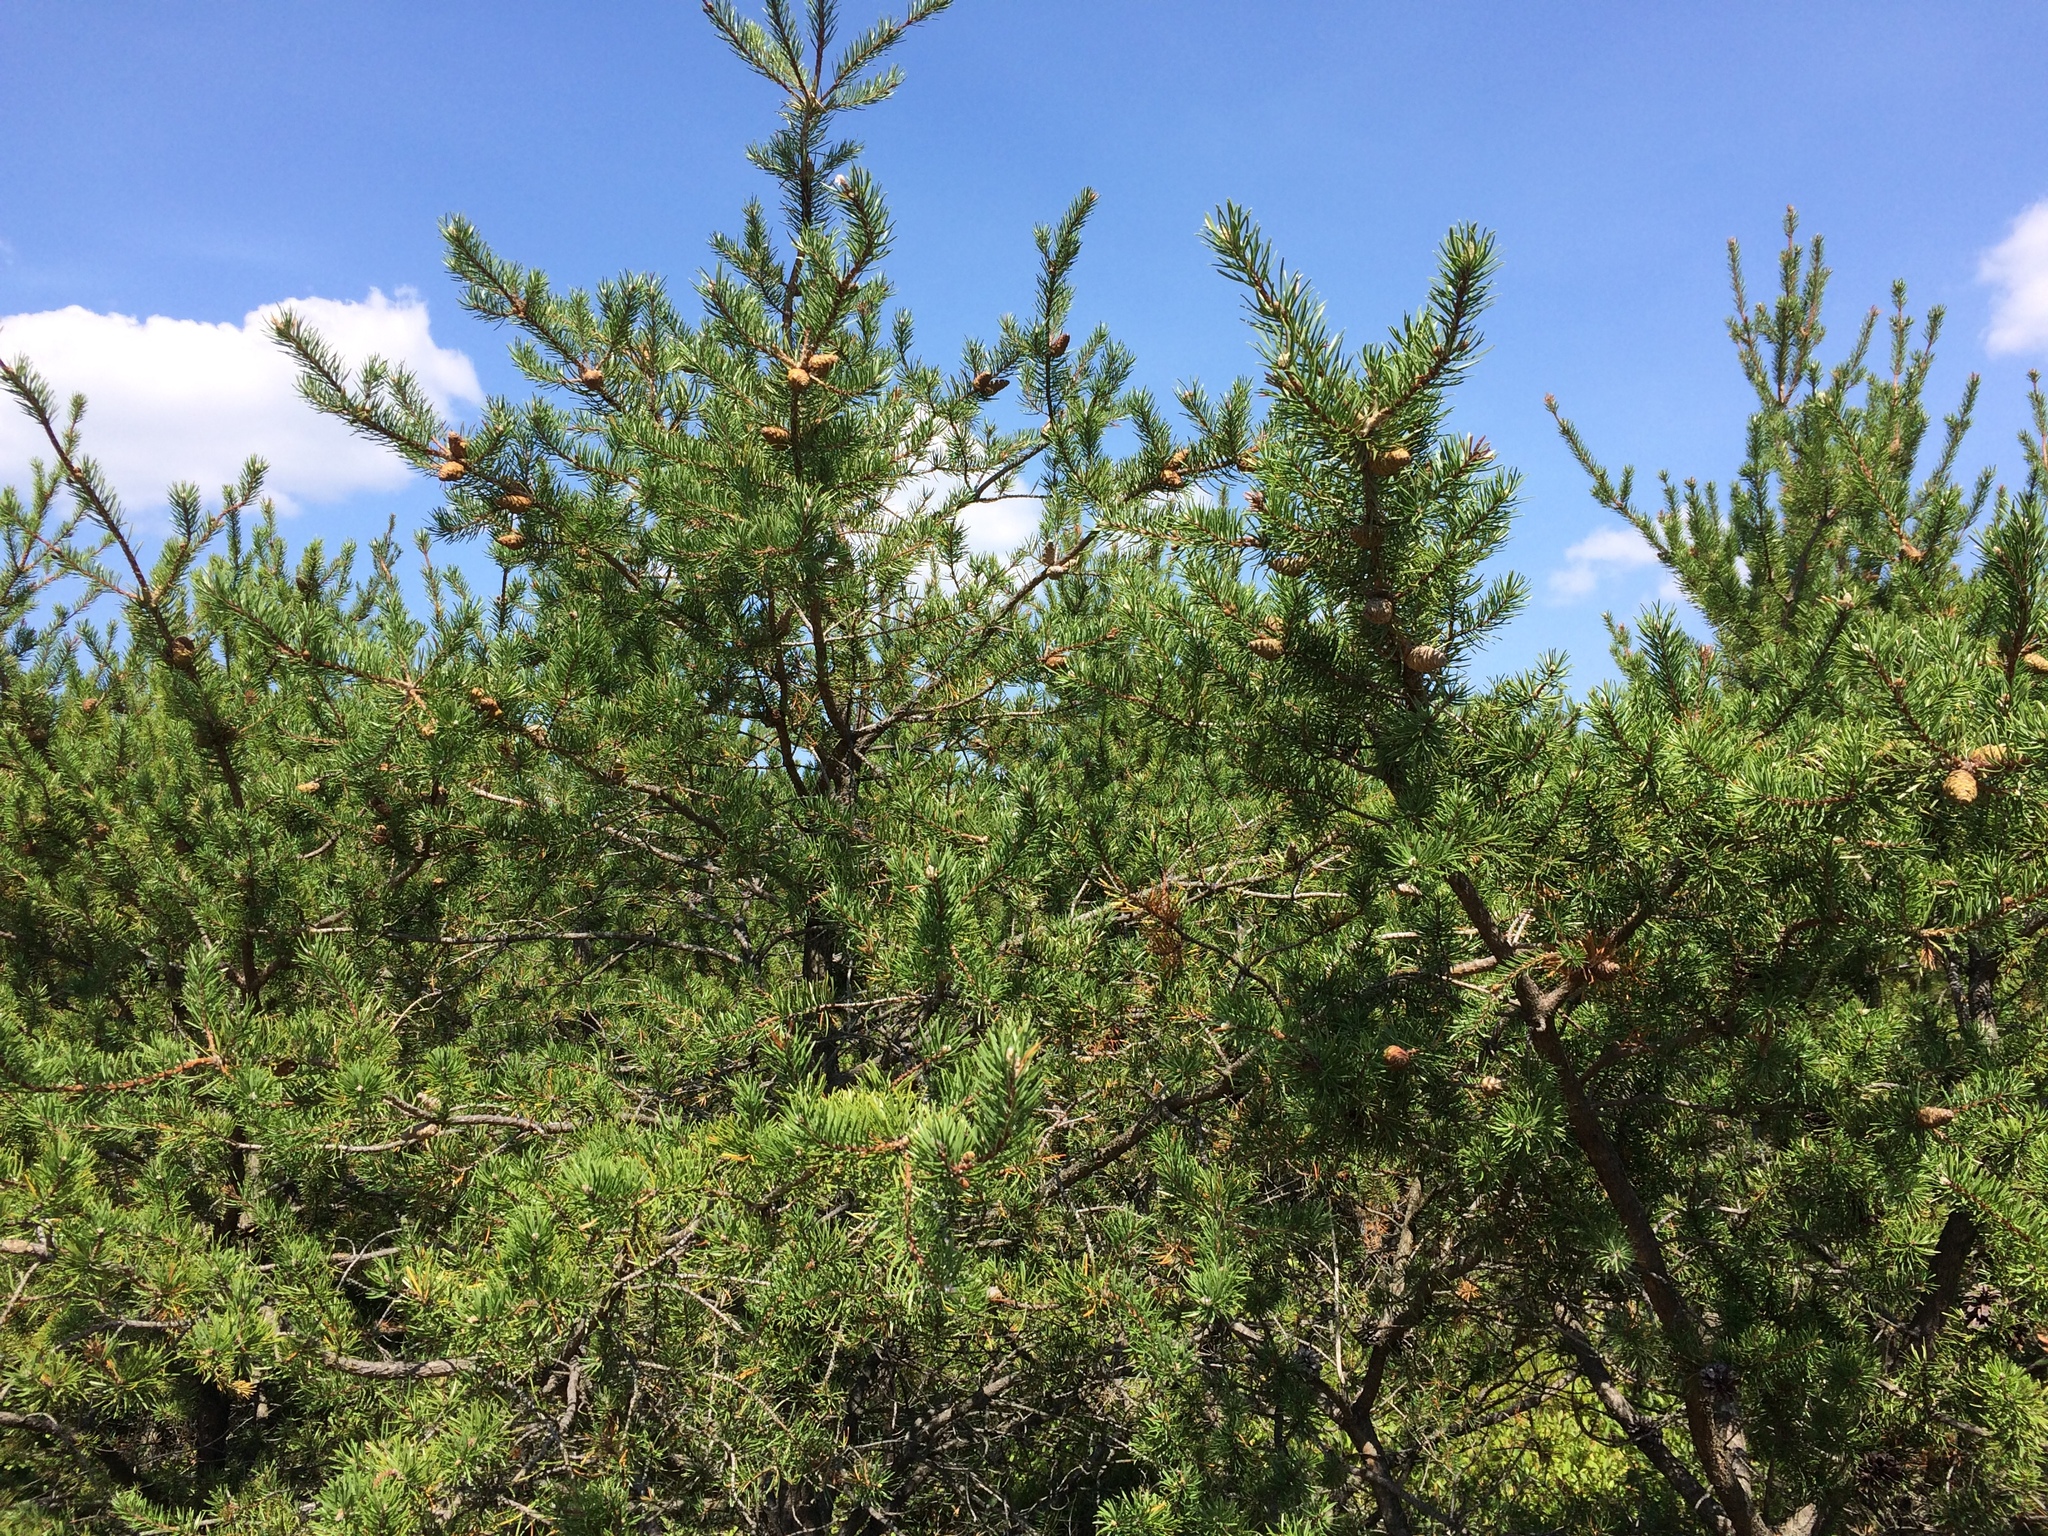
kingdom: Plantae
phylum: Tracheophyta
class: Pinopsida
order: Pinales
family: Pinaceae
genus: Pinus
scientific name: Pinus banksiana
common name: Jack pine
